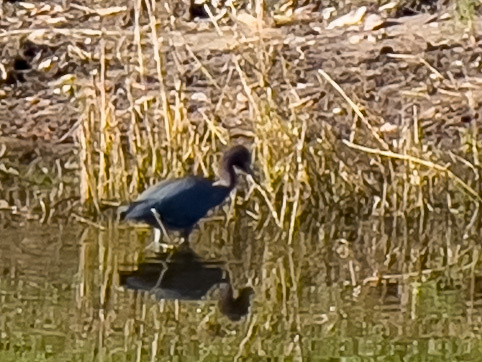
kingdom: Animalia
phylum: Chordata
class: Aves
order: Pelecaniformes
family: Ardeidae
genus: Egretta
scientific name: Egretta caerulea
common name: Little blue heron
